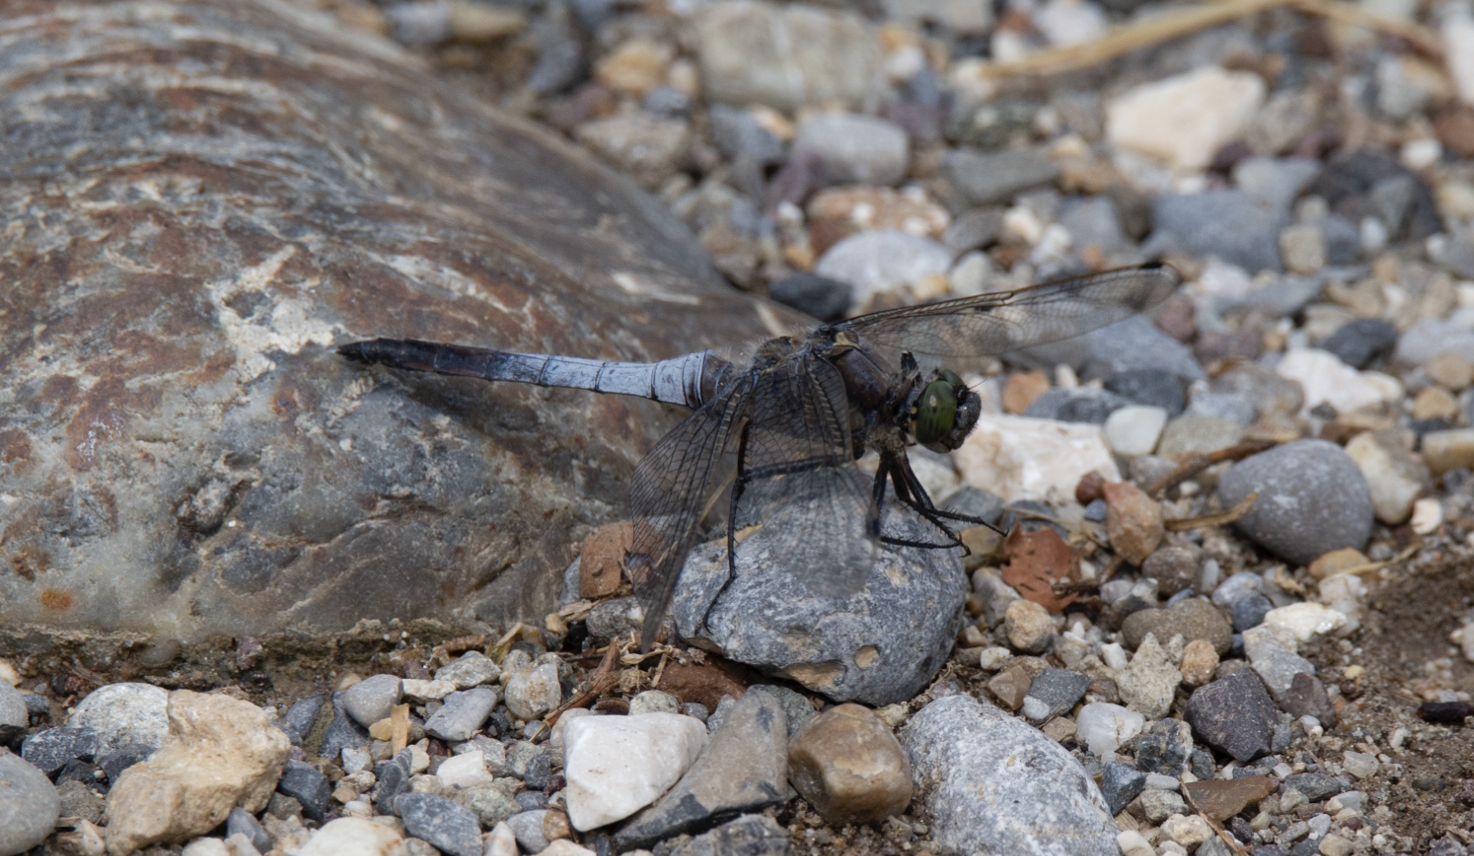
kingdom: Animalia
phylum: Arthropoda
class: Insecta
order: Odonata
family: Libellulidae
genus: Orthetrum
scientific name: Orthetrum cancellatum
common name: Black-tailed skimmer
